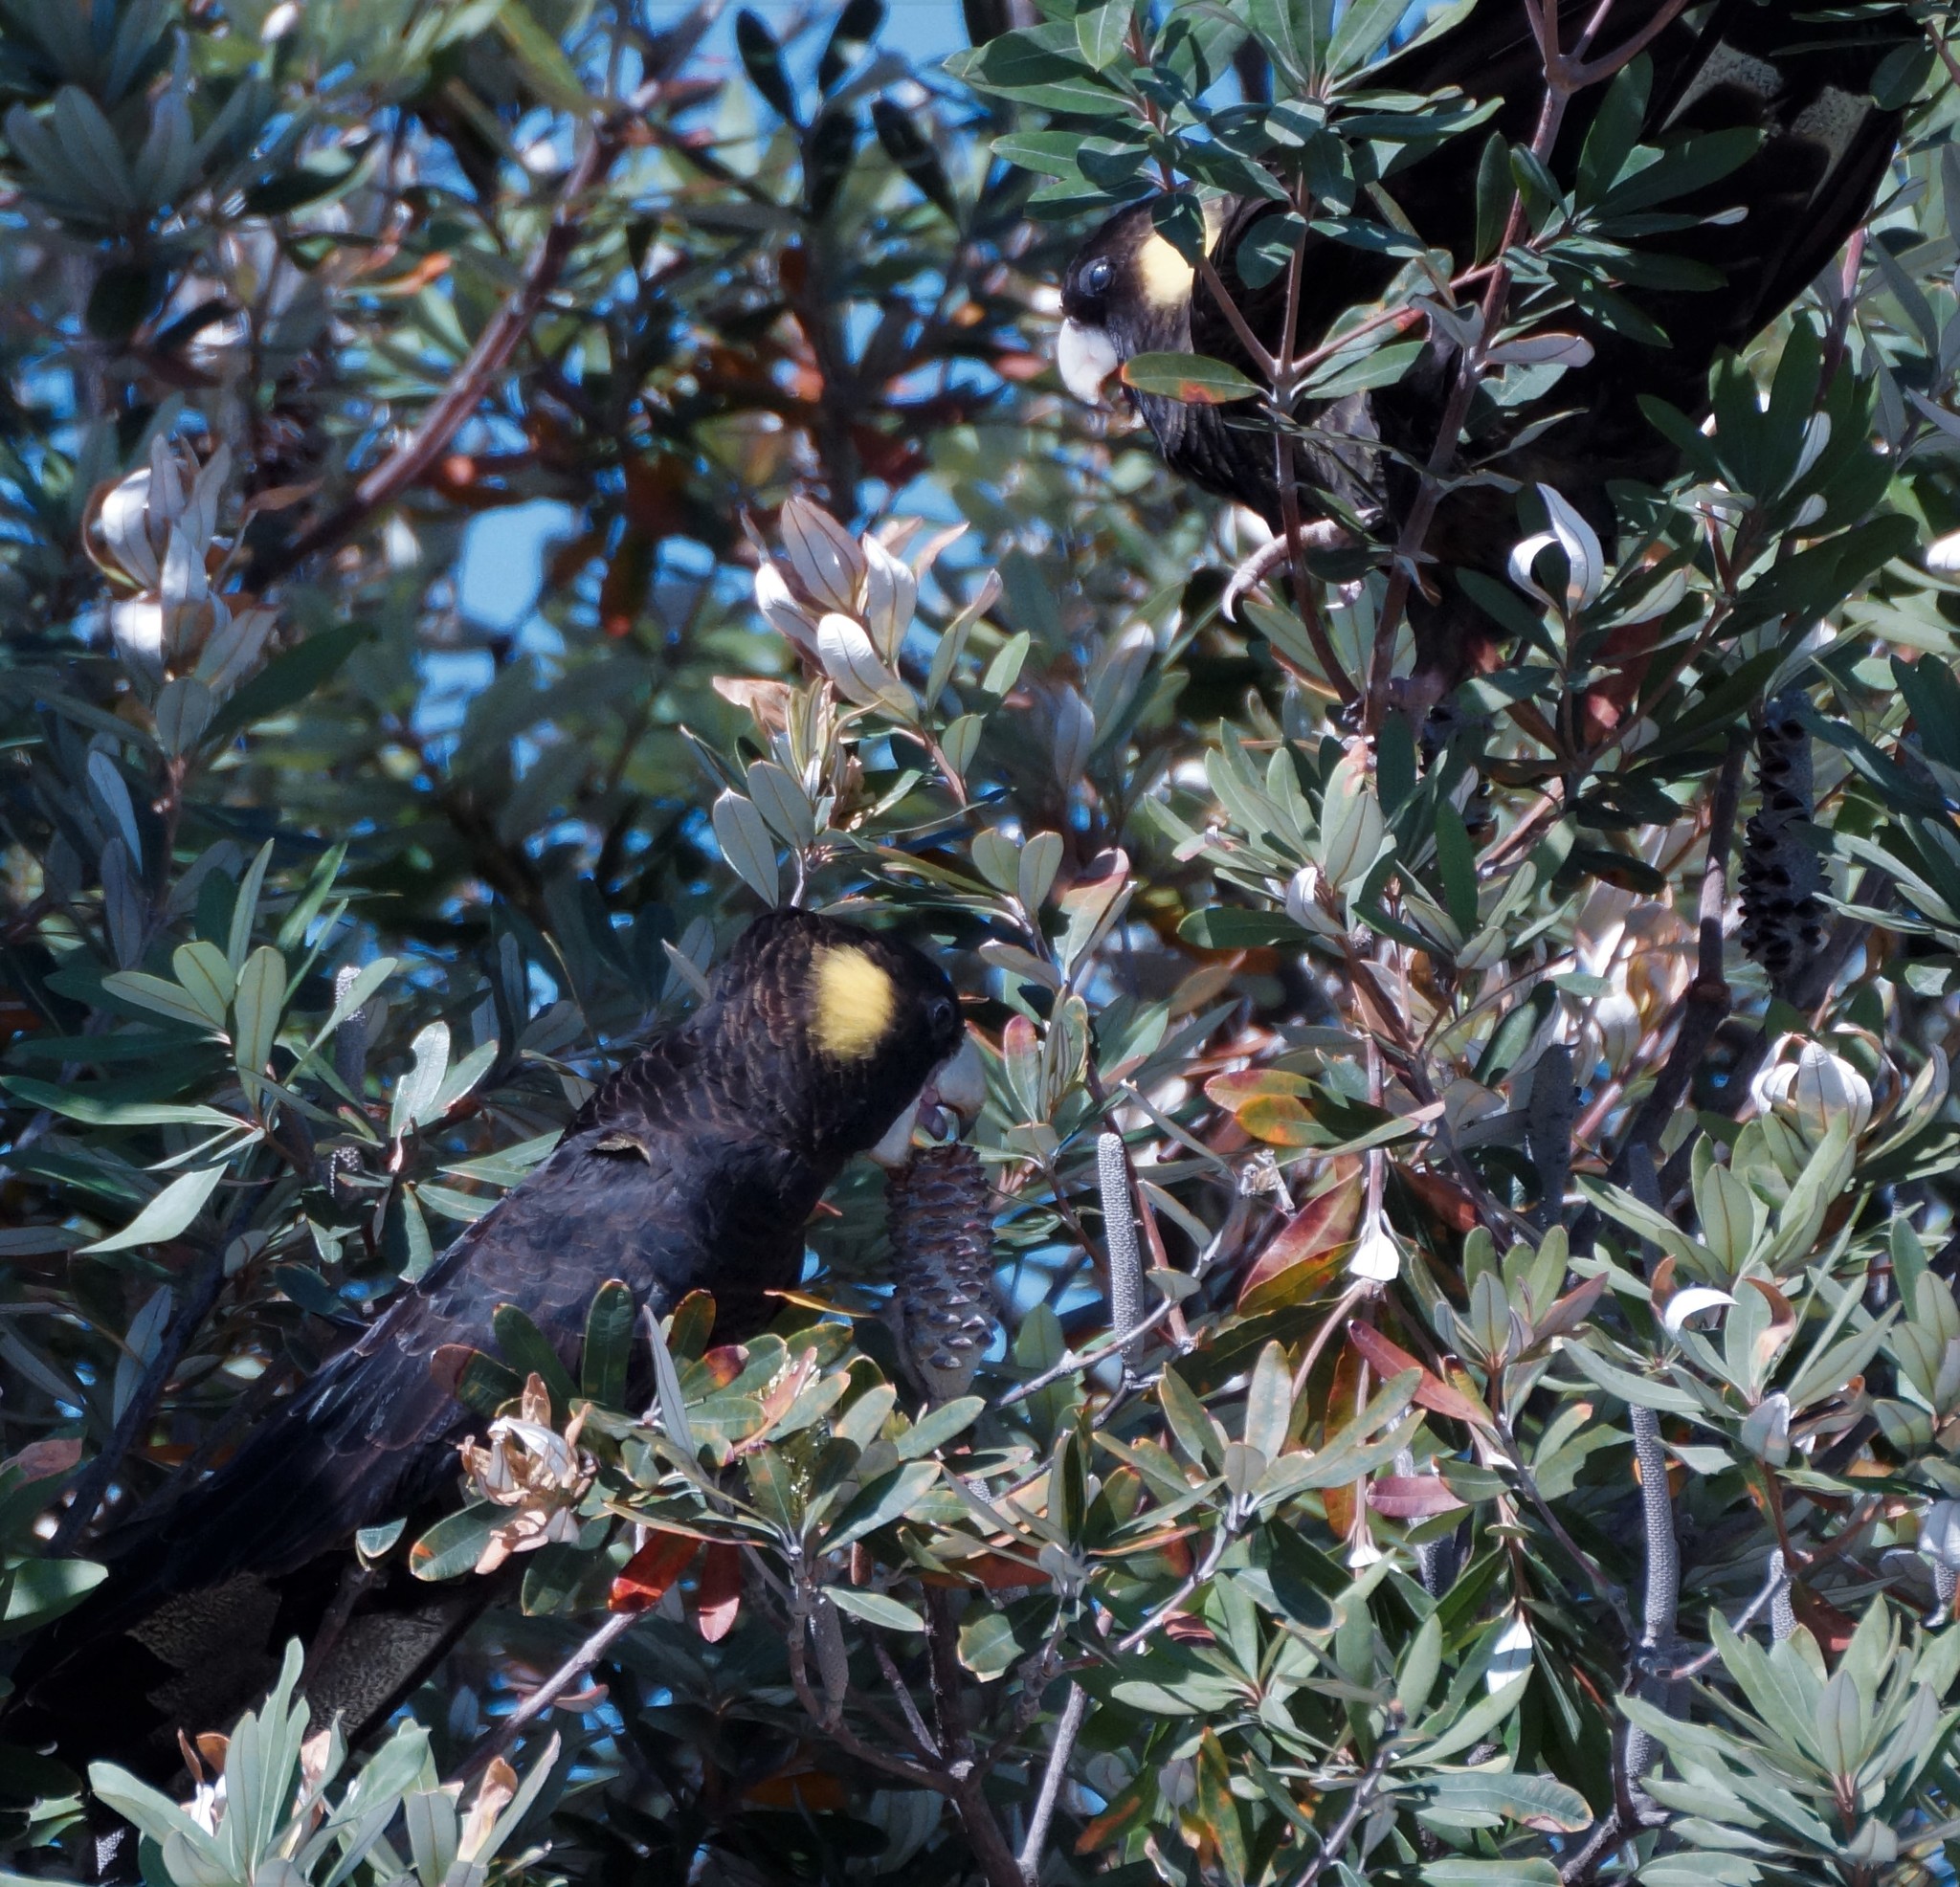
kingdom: Animalia
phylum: Chordata
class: Aves
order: Psittaciformes
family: Cacatuidae
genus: Zanda
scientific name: Zanda funerea
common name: Yellow-tailed black-cockatoo
